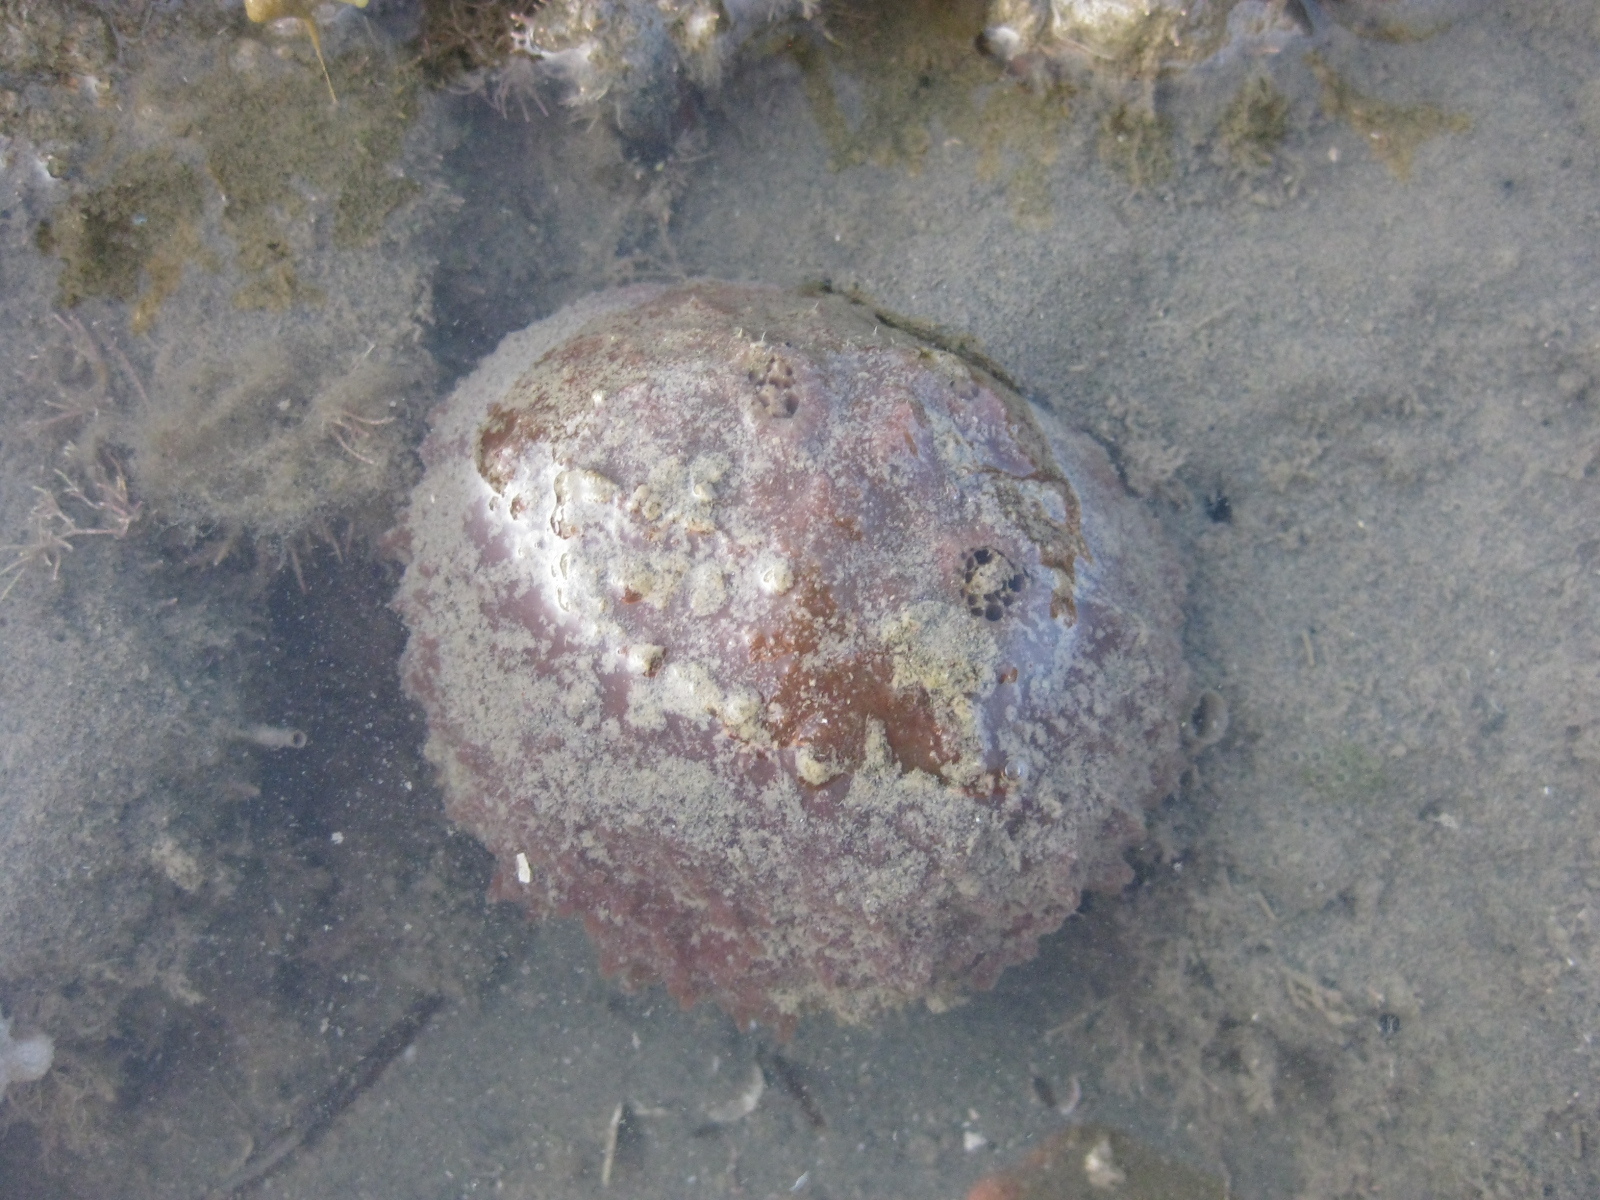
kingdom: Animalia
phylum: Porifera
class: Demospongiae
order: Suberitida
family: Suberitidae
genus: Aaptos
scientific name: Aaptos tenta
